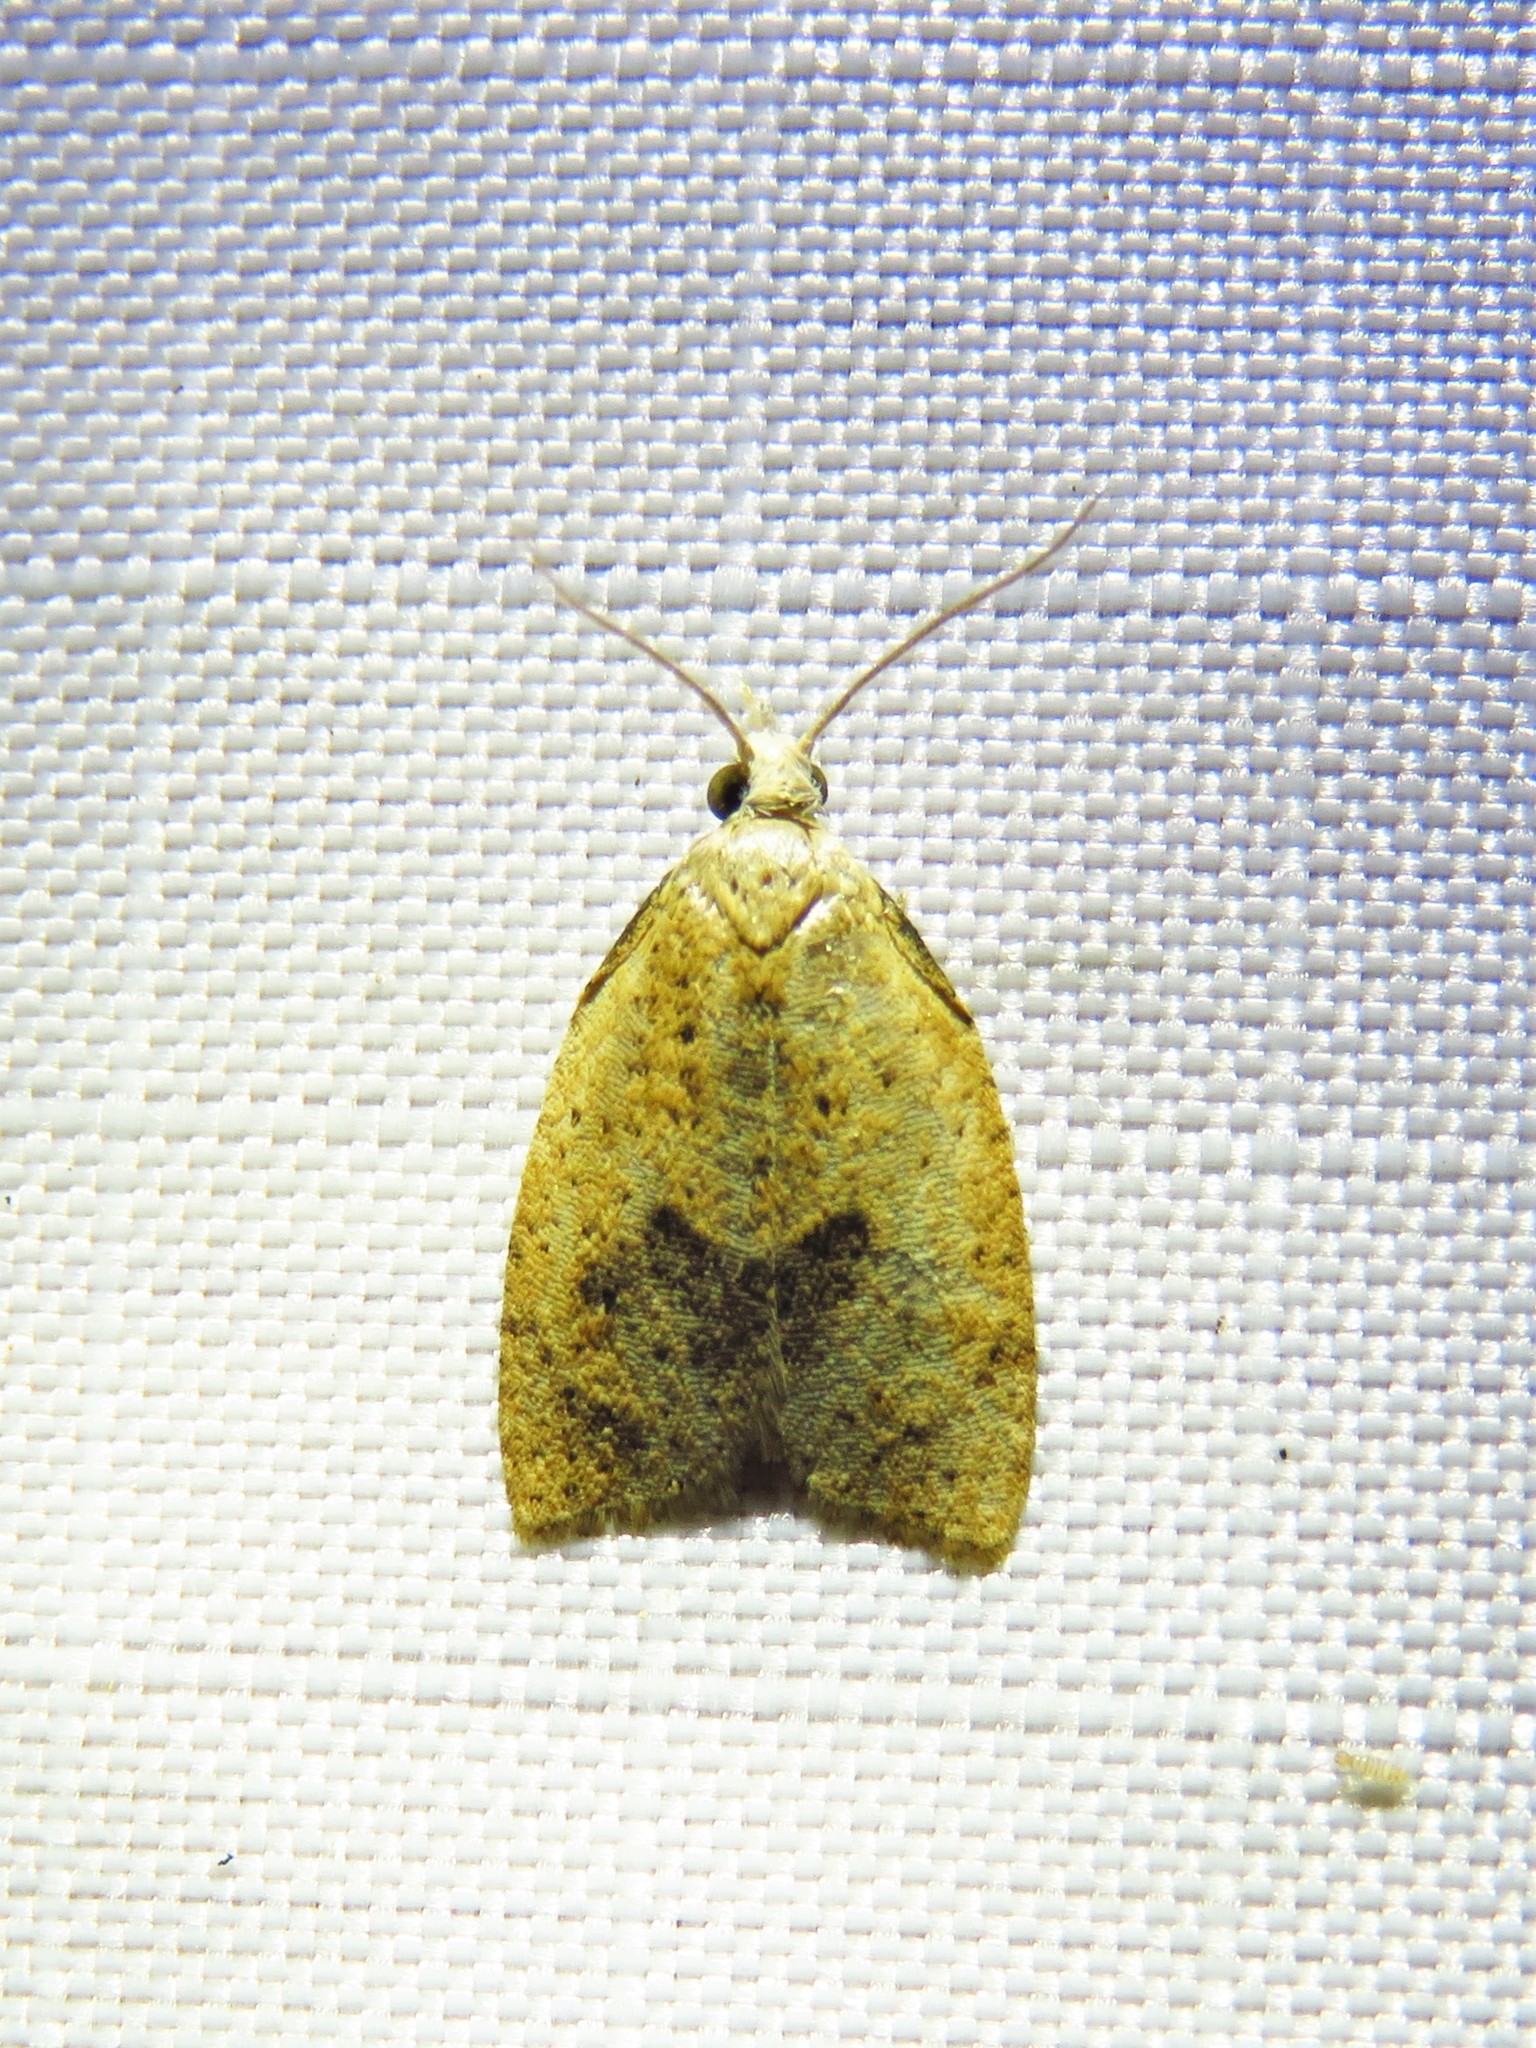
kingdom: Animalia
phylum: Arthropoda
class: Insecta
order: Lepidoptera
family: Tortricidae
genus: Sparganothoides
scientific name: Sparganothoides lentiginosana
